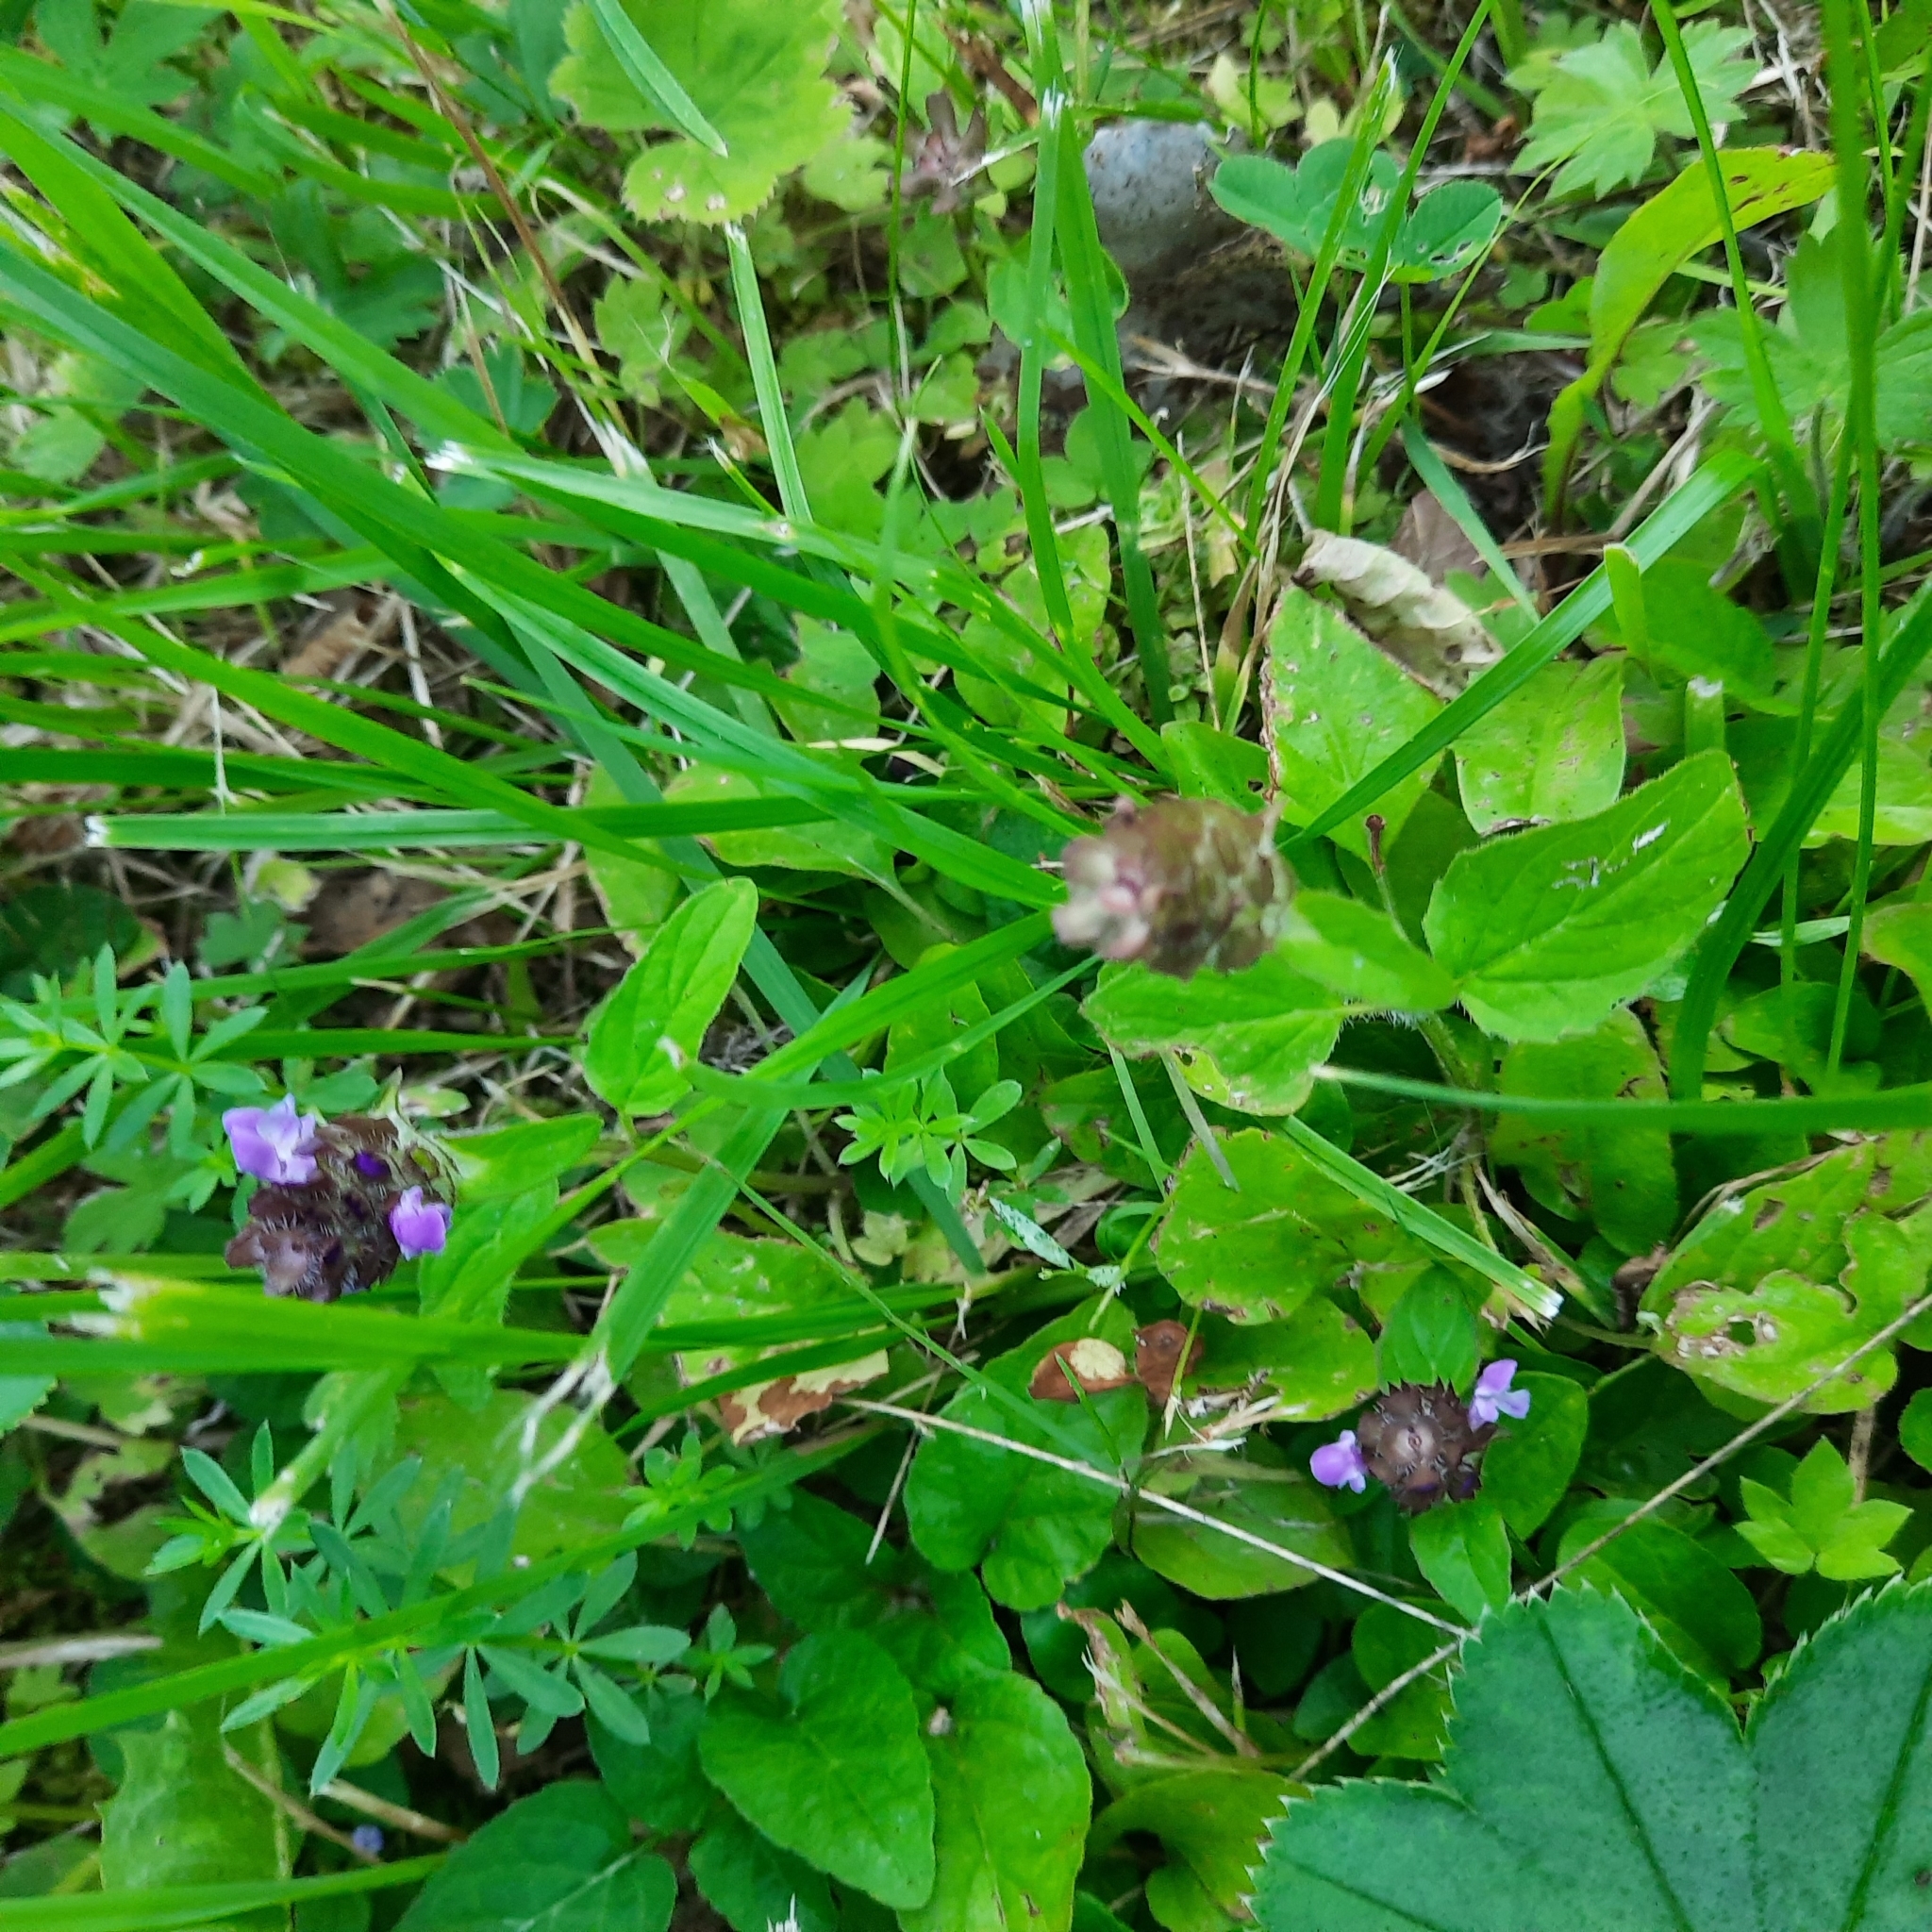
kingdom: Plantae
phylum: Tracheophyta
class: Magnoliopsida
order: Lamiales
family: Lamiaceae
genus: Prunella
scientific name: Prunella vulgaris
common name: Heal-all
